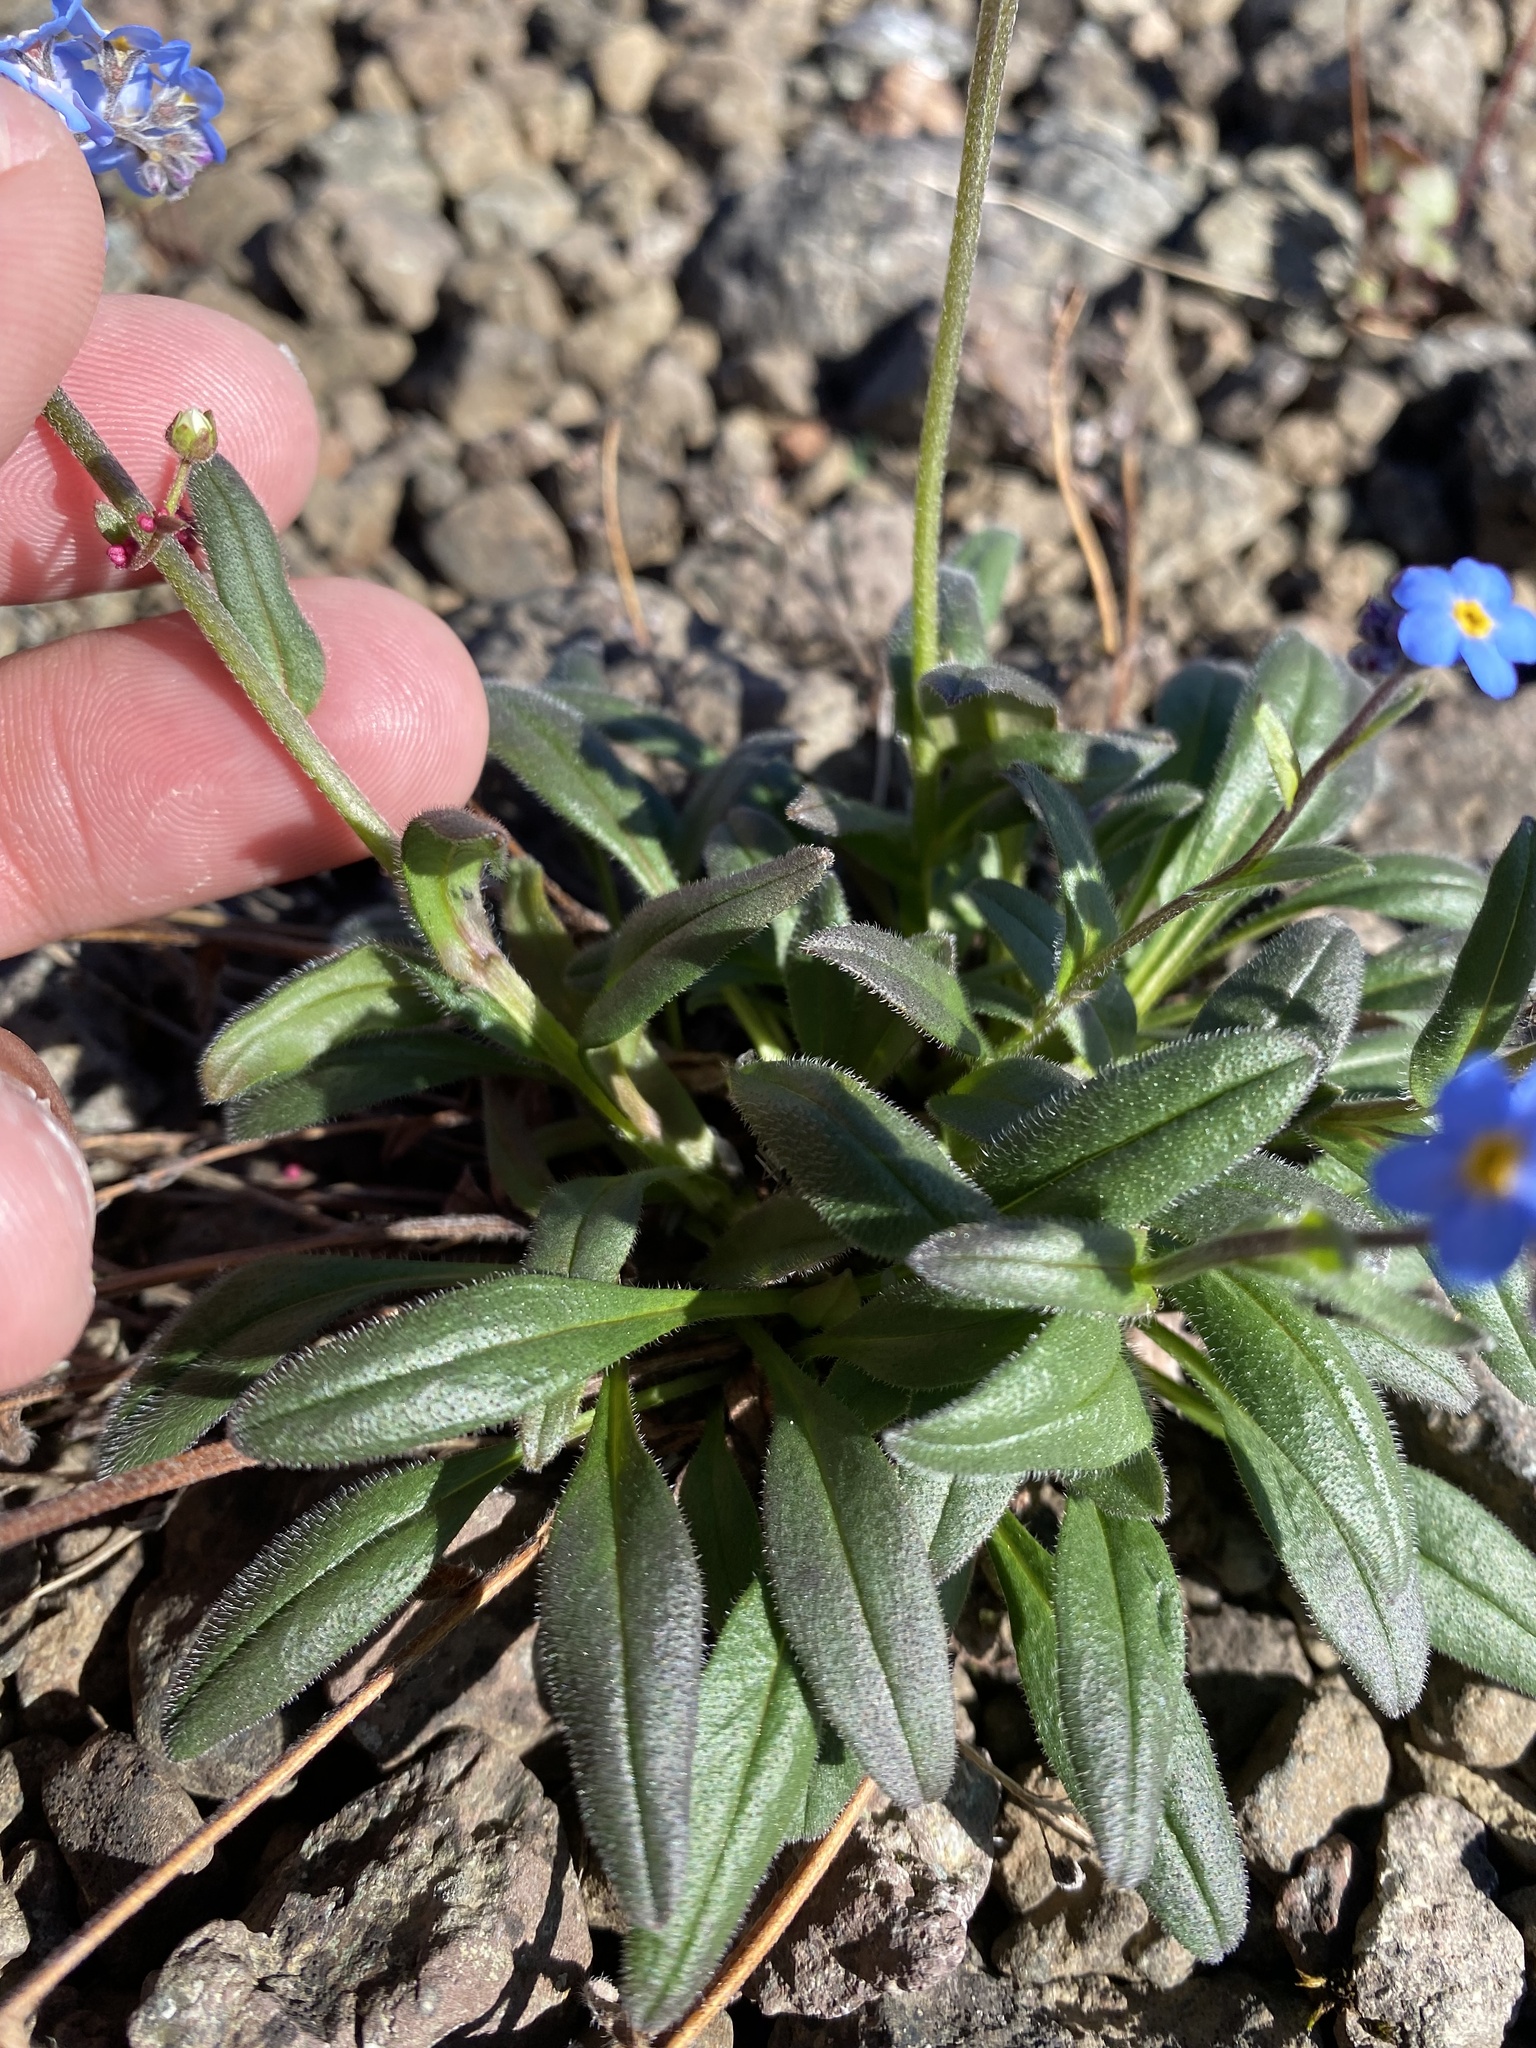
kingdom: Plantae
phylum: Tracheophyta
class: Magnoliopsida
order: Boraginales
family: Boraginaceae
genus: Myosotis
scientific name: Myosotis asiatica
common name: Asian forget-me-not
